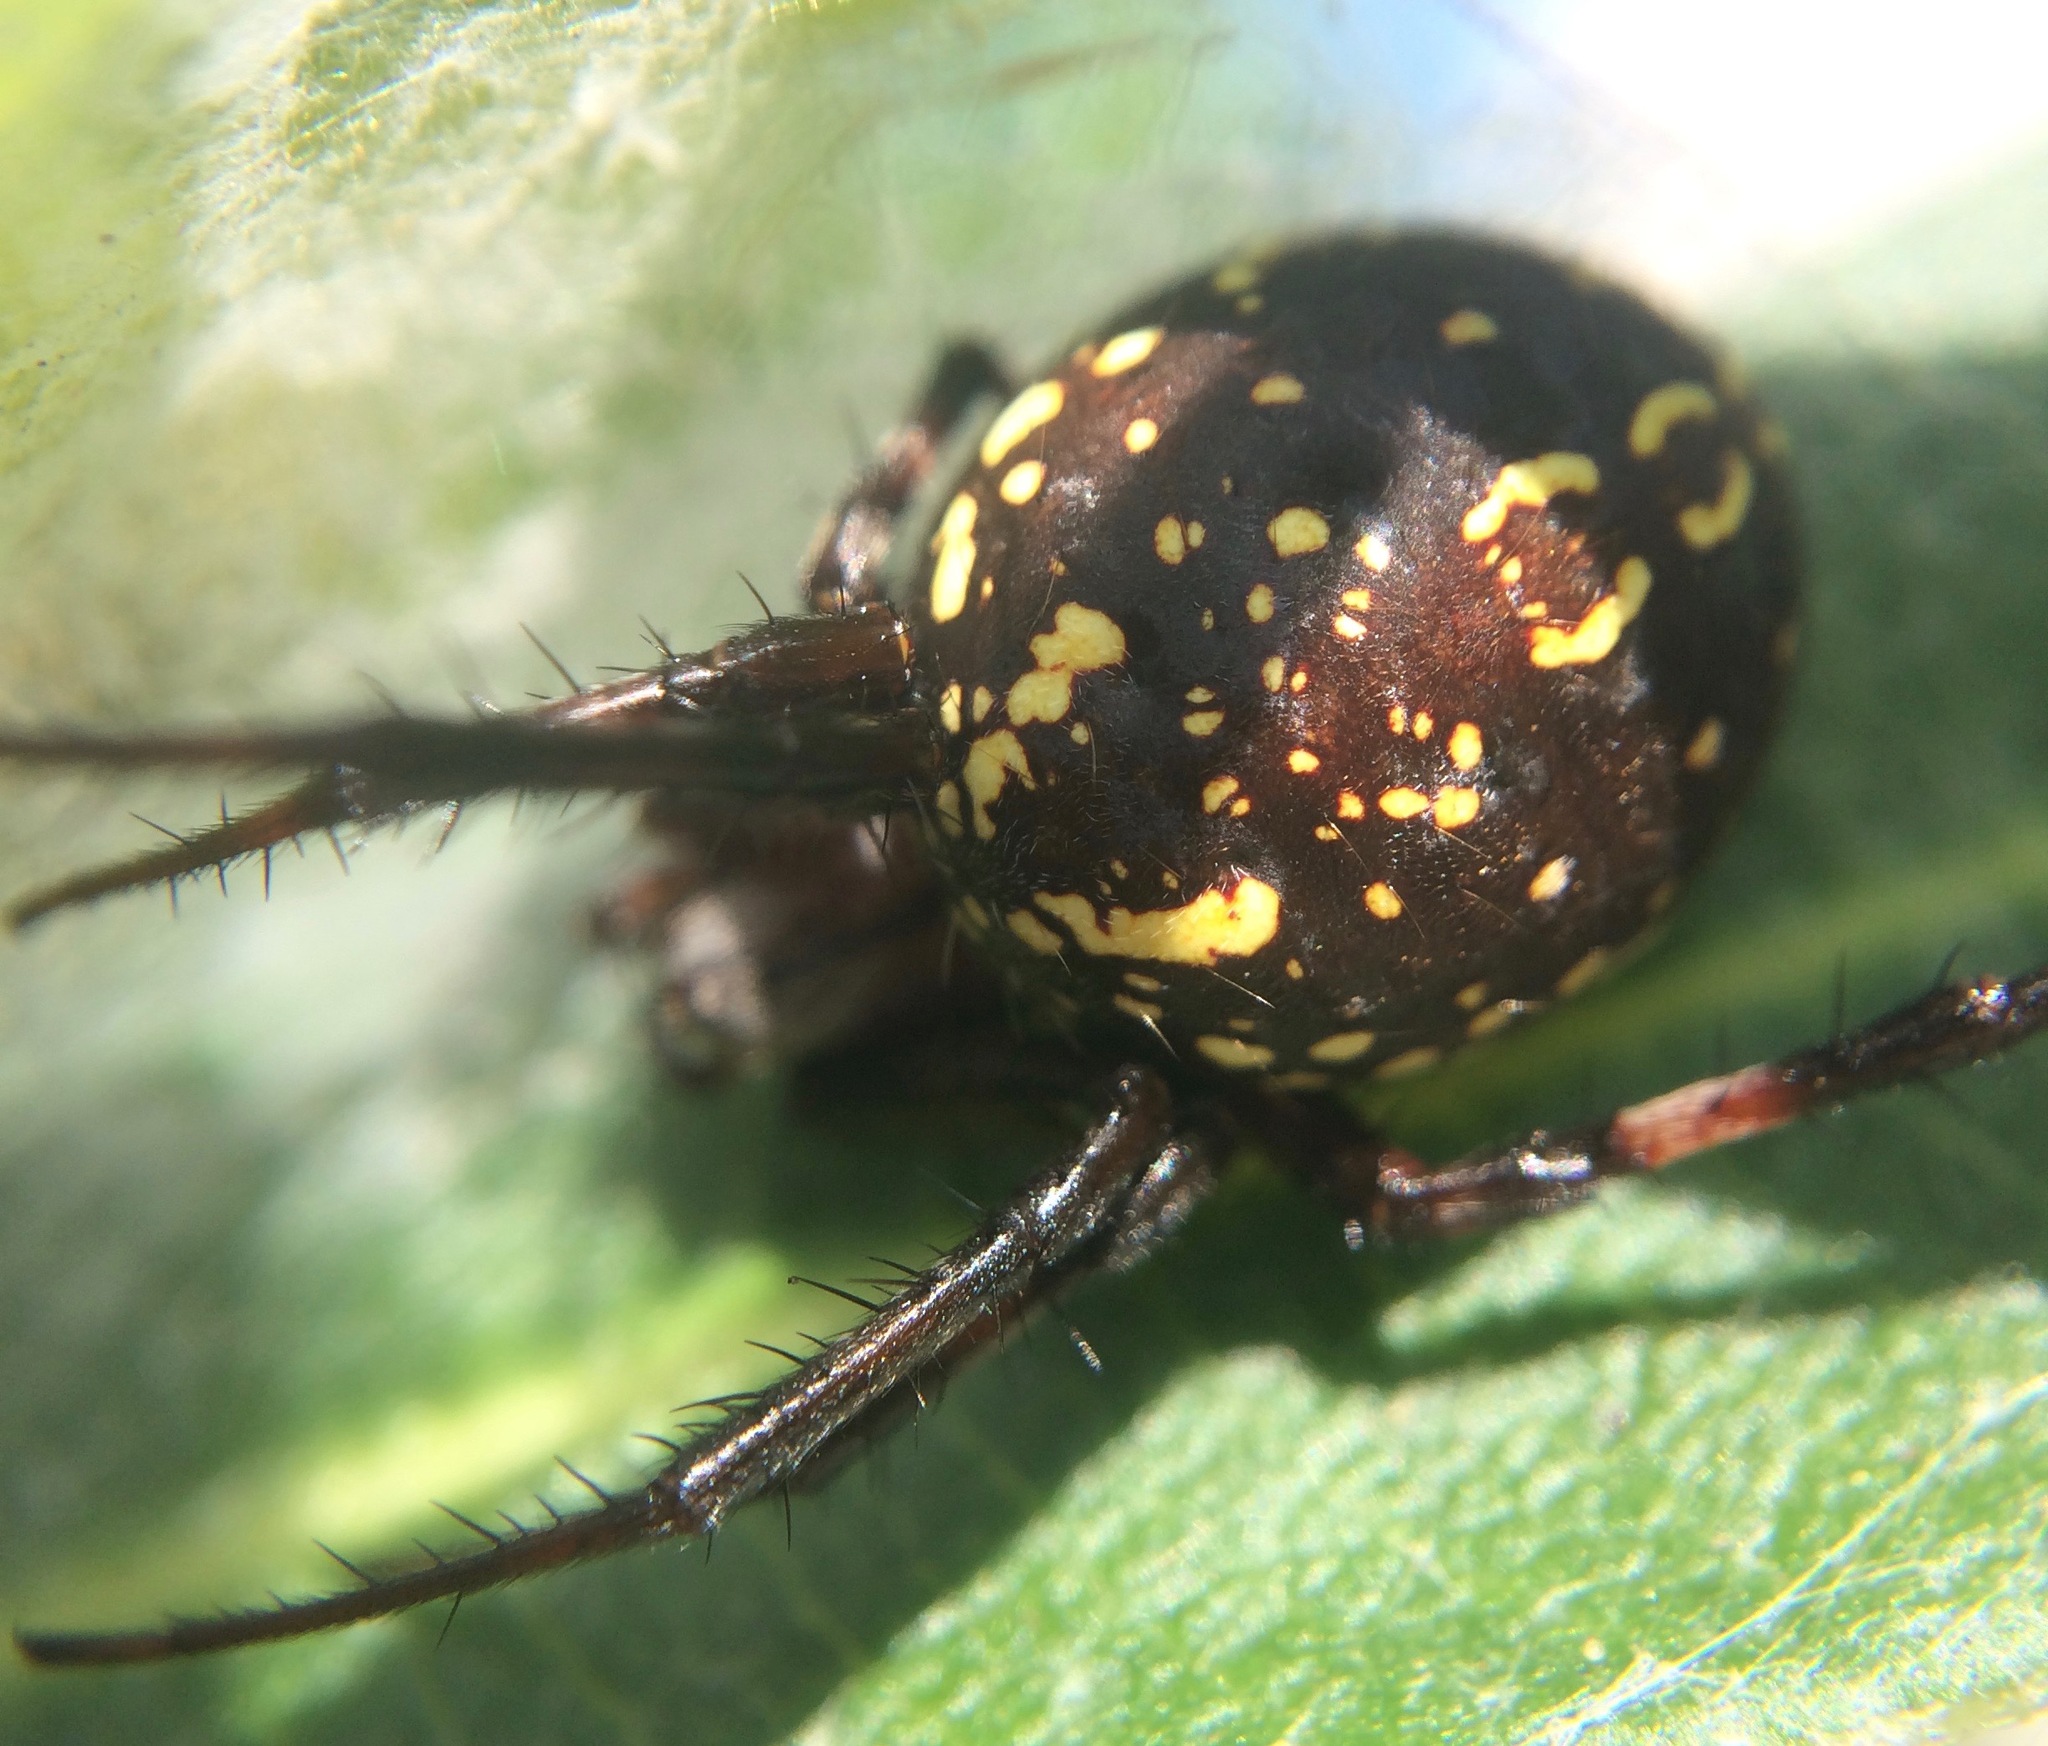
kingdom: Animalia
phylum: Arthropoda
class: Arachnida
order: Araneae
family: Araneidae
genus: Neoscona
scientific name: Neoscona oaxacensis
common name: Orb weavers
